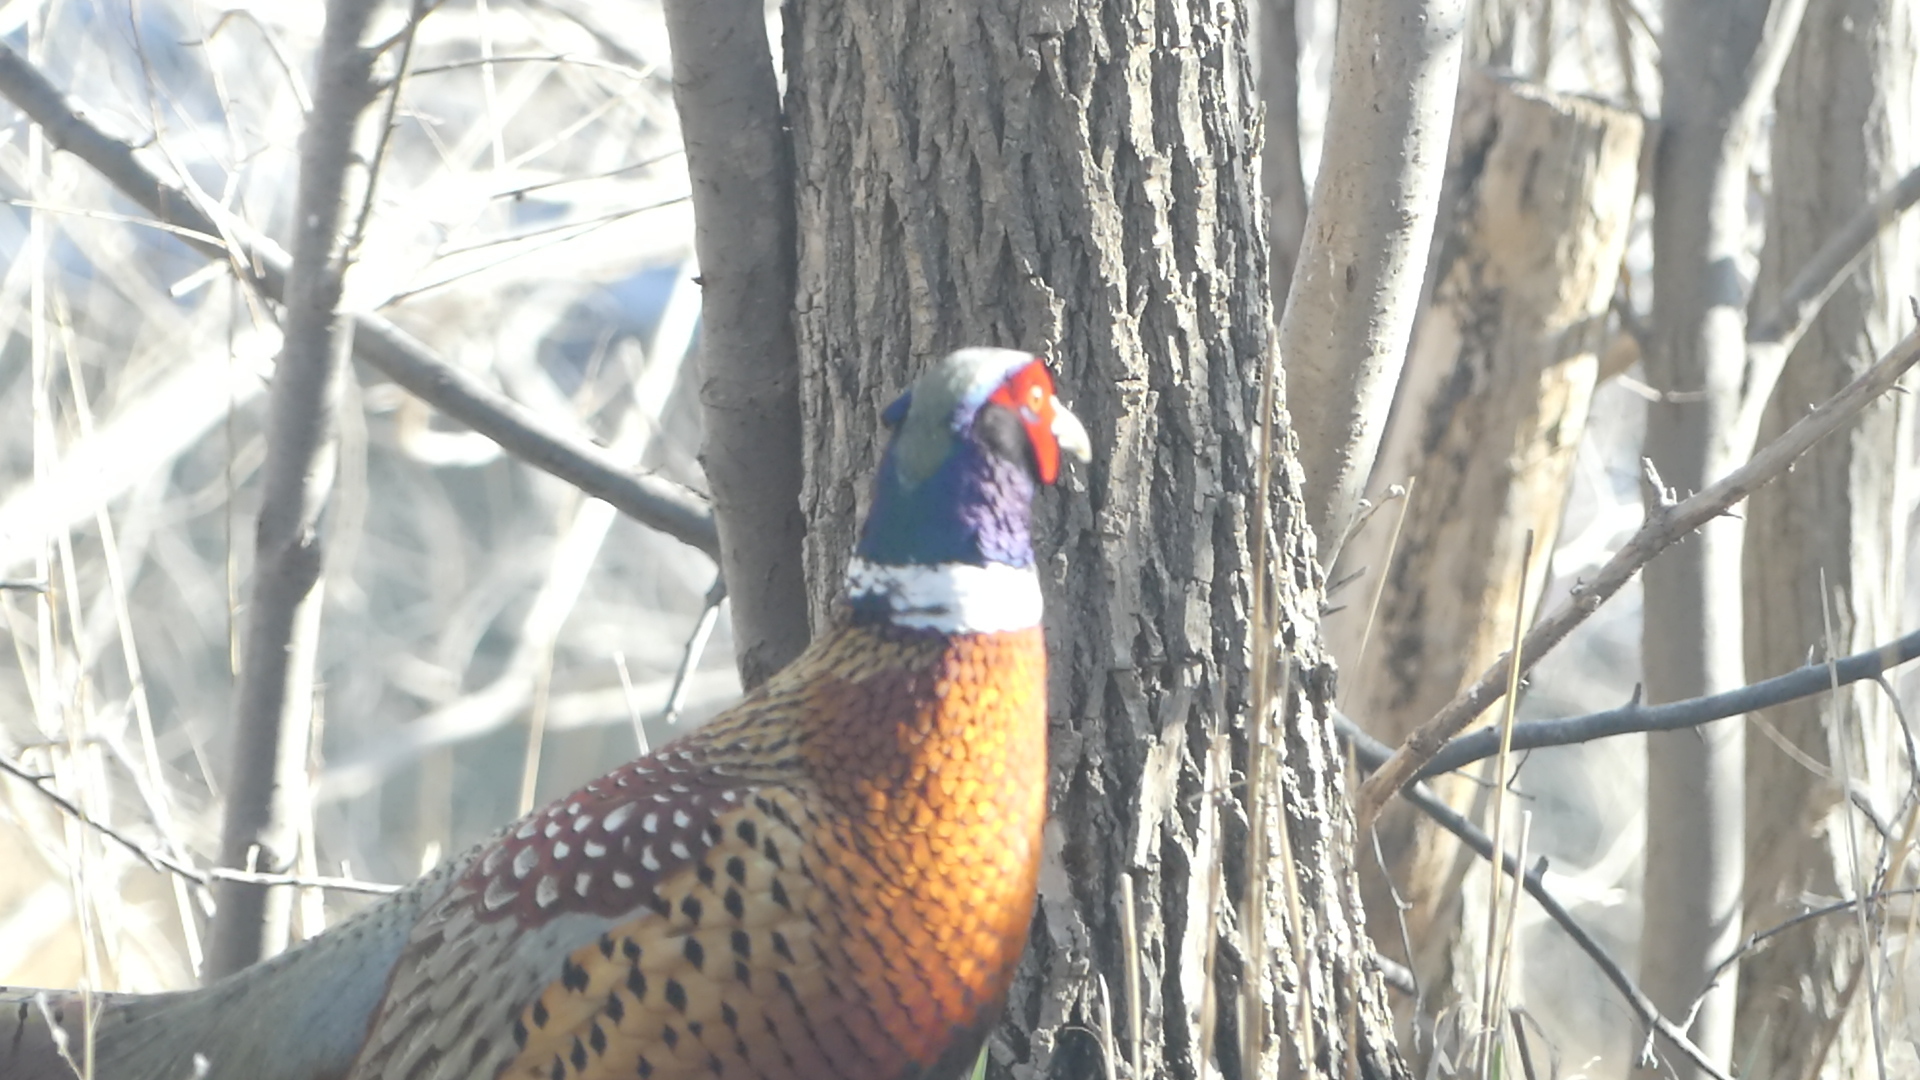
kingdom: Animalia
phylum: Chordata
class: Aves
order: Galliformes
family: Phasianidae
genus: Phasianus
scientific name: Phasianus colchicus
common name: Common pheasant
